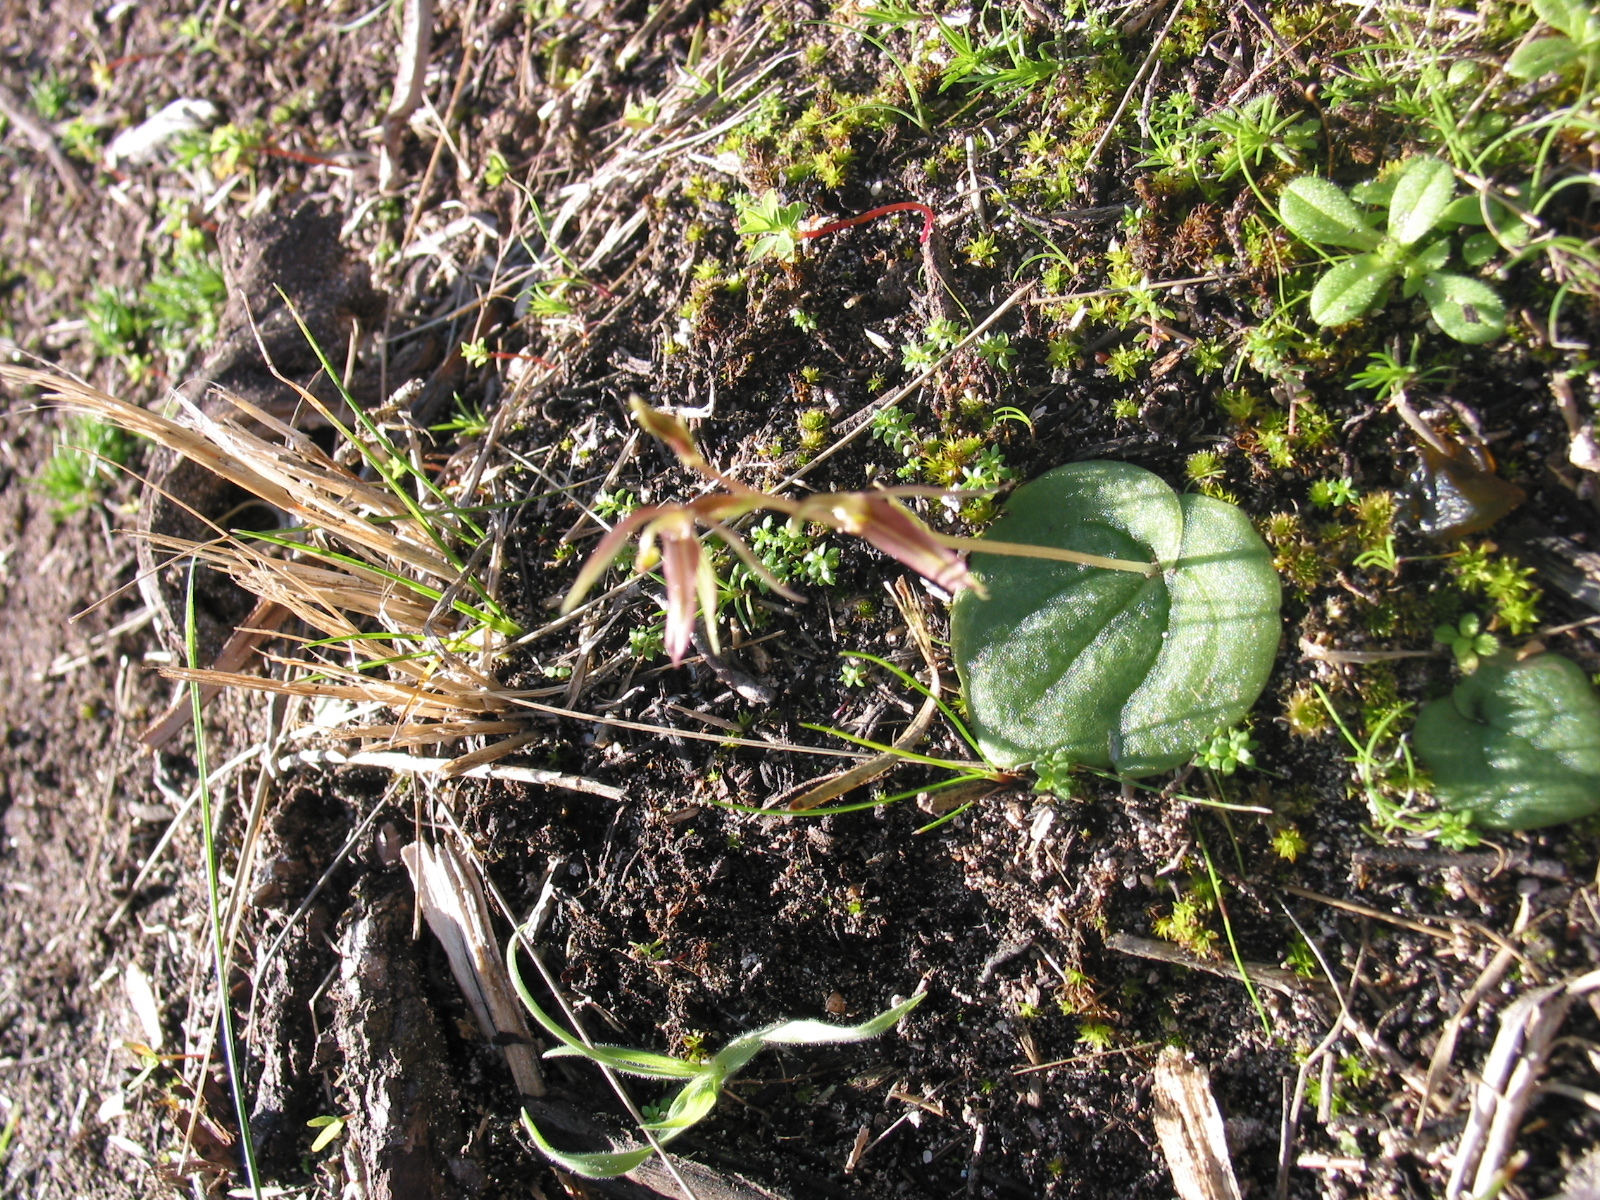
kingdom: Plantae
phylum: Tracheophyta
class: Liliopsida
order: Asparagales
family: Orchidaceae
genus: Cyrtostylis
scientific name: Cyrtostylis huegelii
